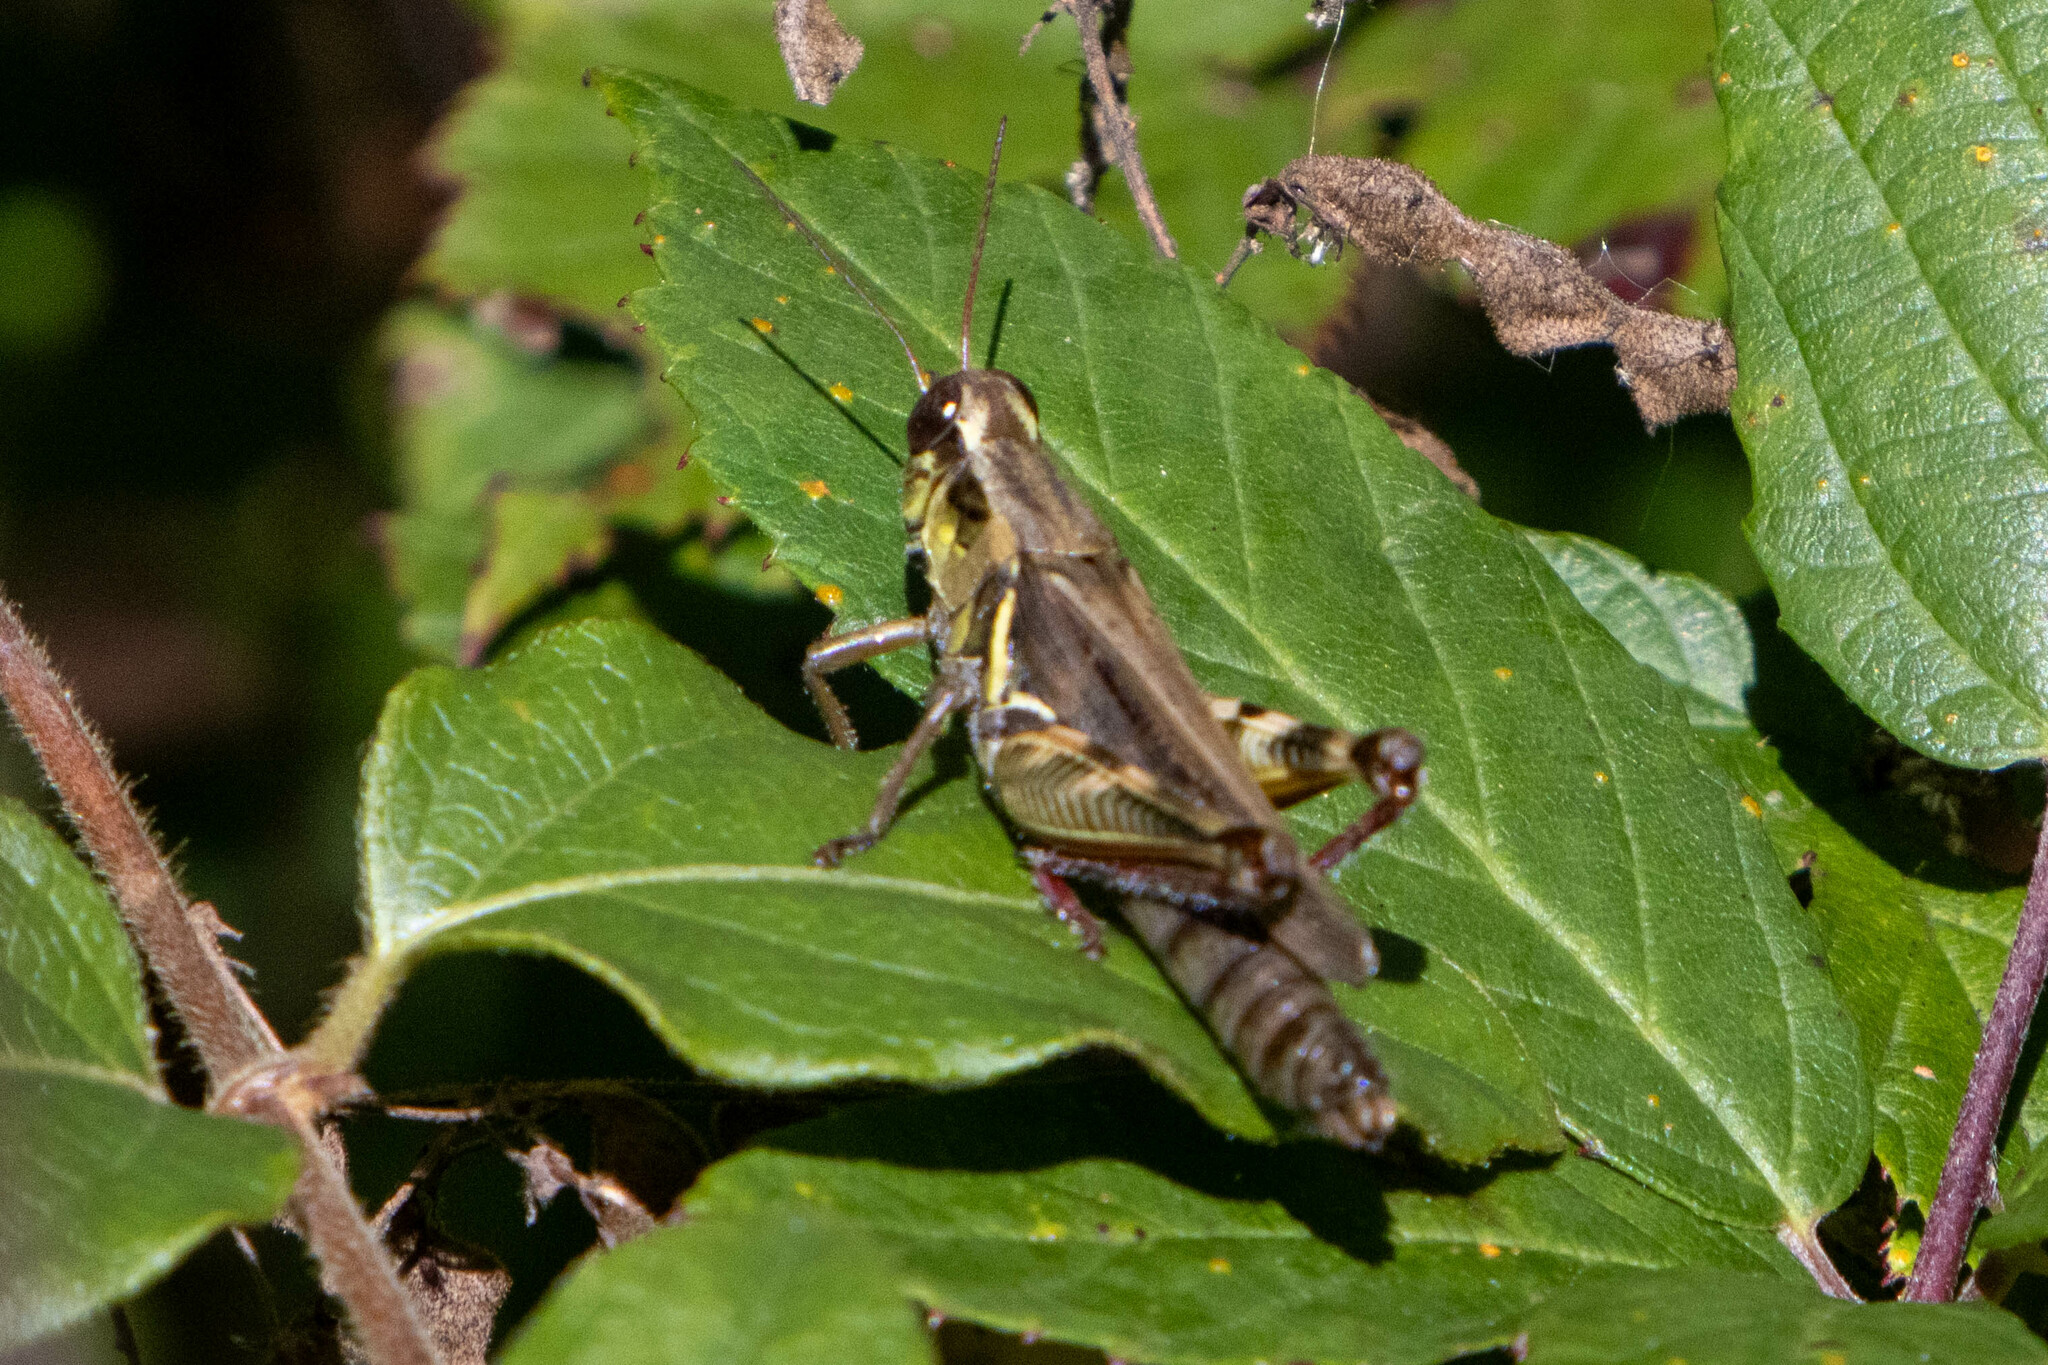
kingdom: Animalia
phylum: Arthropoda
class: Insecta
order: Orthoptera
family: Acrididae
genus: Melanoplus
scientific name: Melanoplus femurrubrum
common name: Red-legged grasshopper
